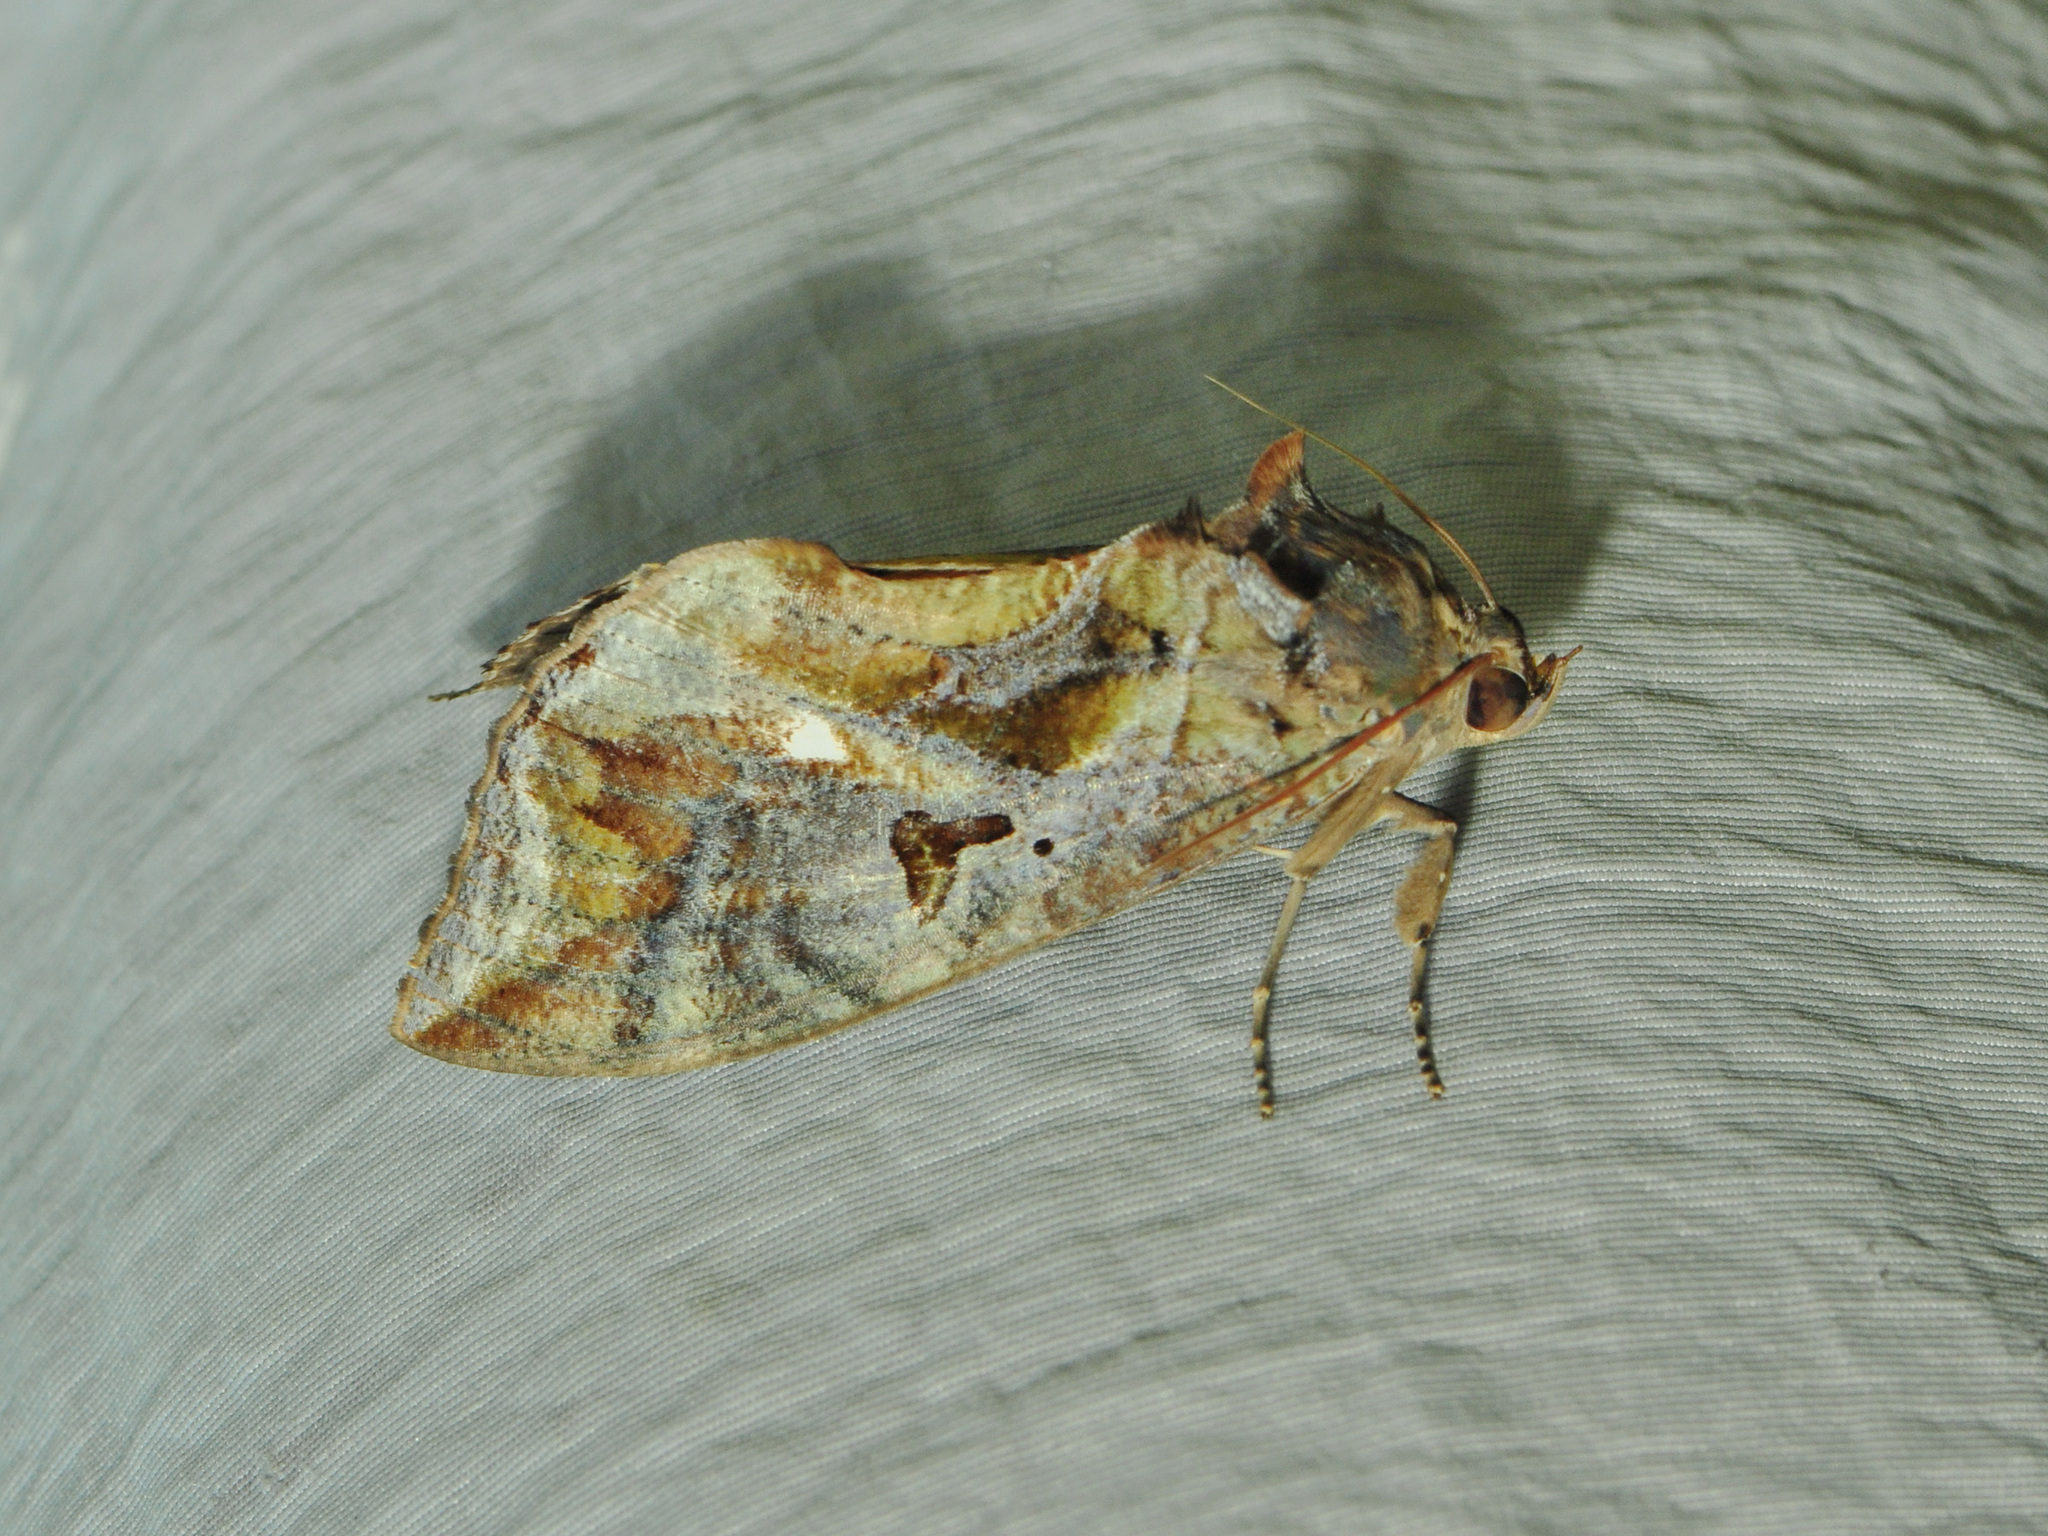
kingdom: Animalia
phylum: Arthropoda
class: Insecta
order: Lepidoptera
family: Erebidae
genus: Eudocima
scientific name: Eudocima phalonia
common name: Wasp
